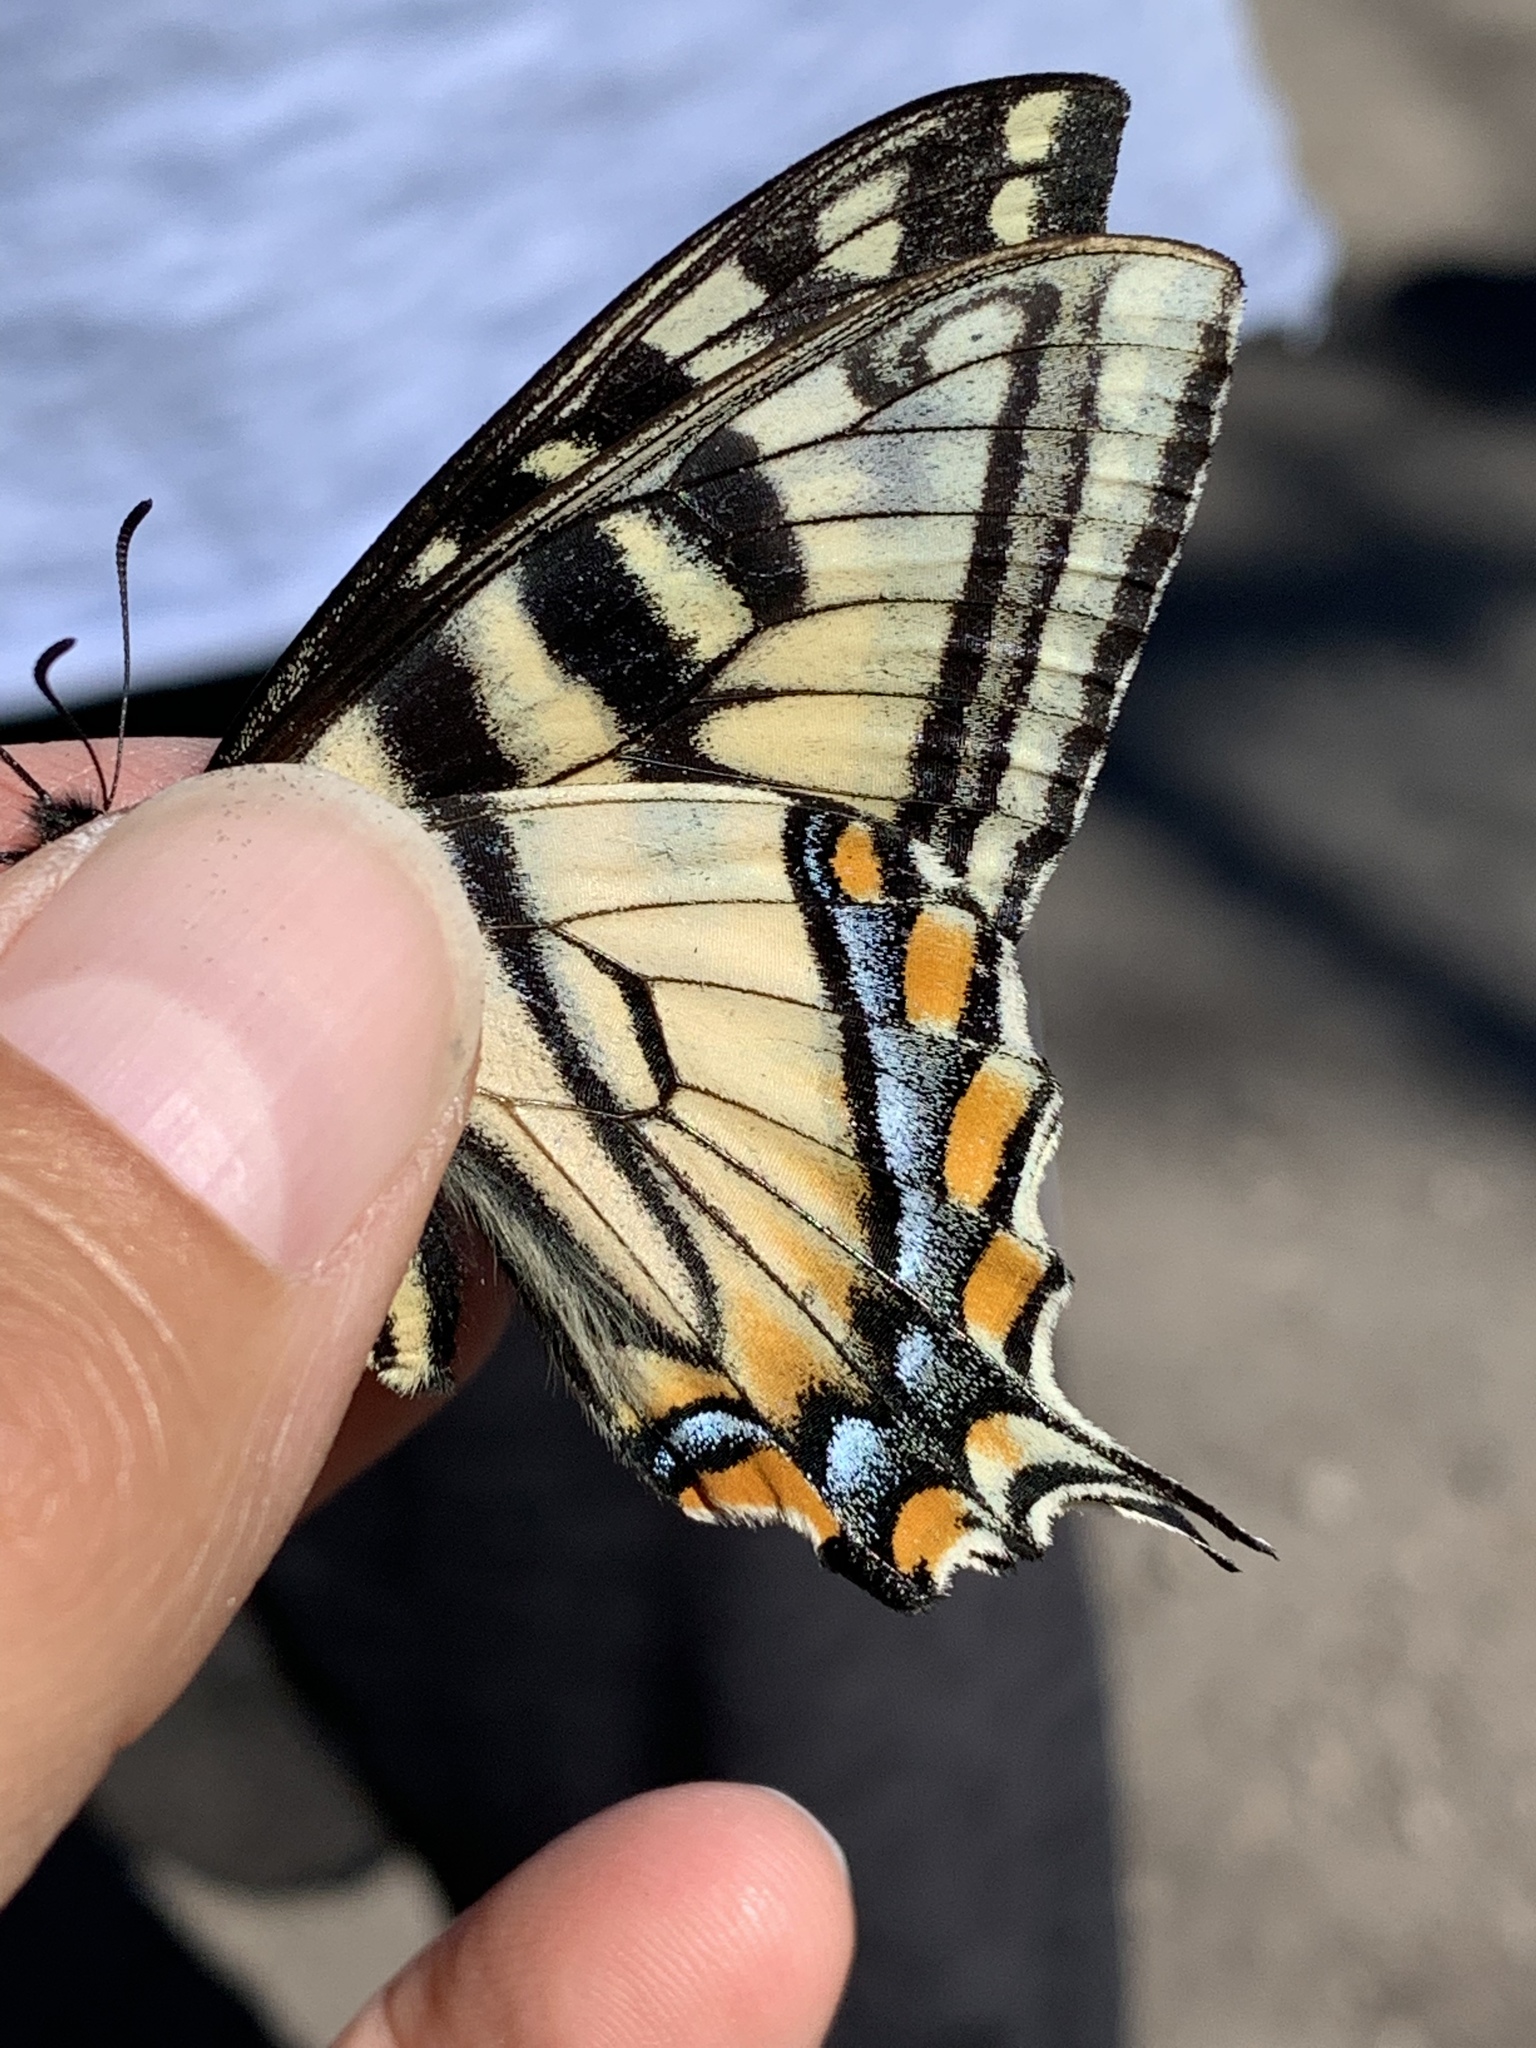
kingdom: Animalia
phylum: Arthropoda
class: Insecta
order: Lepidoptera
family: Papilionidae
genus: Papilio
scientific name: Papilio canadensis
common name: Canadian tiger swallowtail
